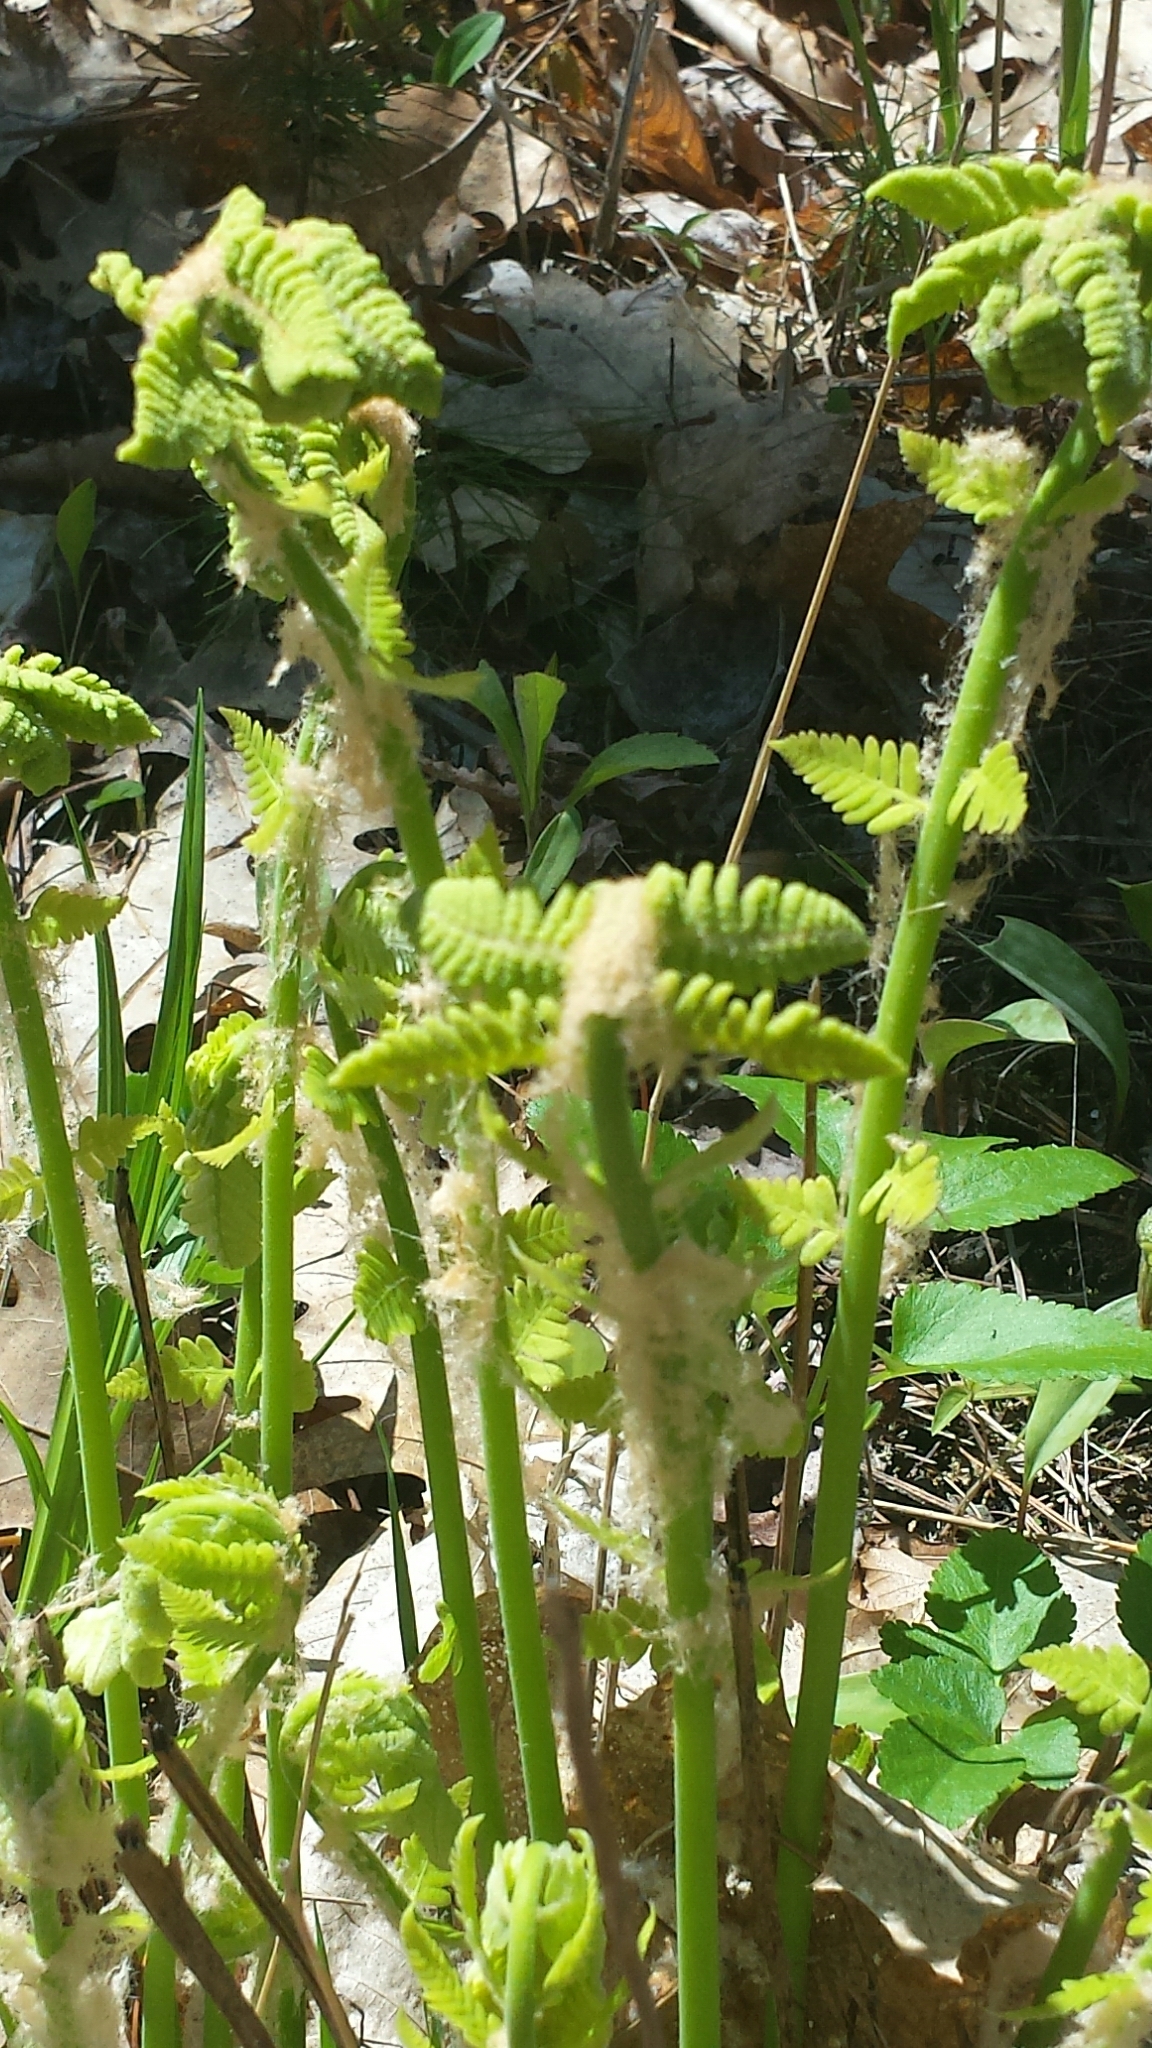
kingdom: Plantae
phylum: Tracheophyta
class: Polypodiopsida
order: Osmundales
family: Osmundaceae
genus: Osmundastrum
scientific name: Osmundastrum cinnamomeum
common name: Cinnamon fern
